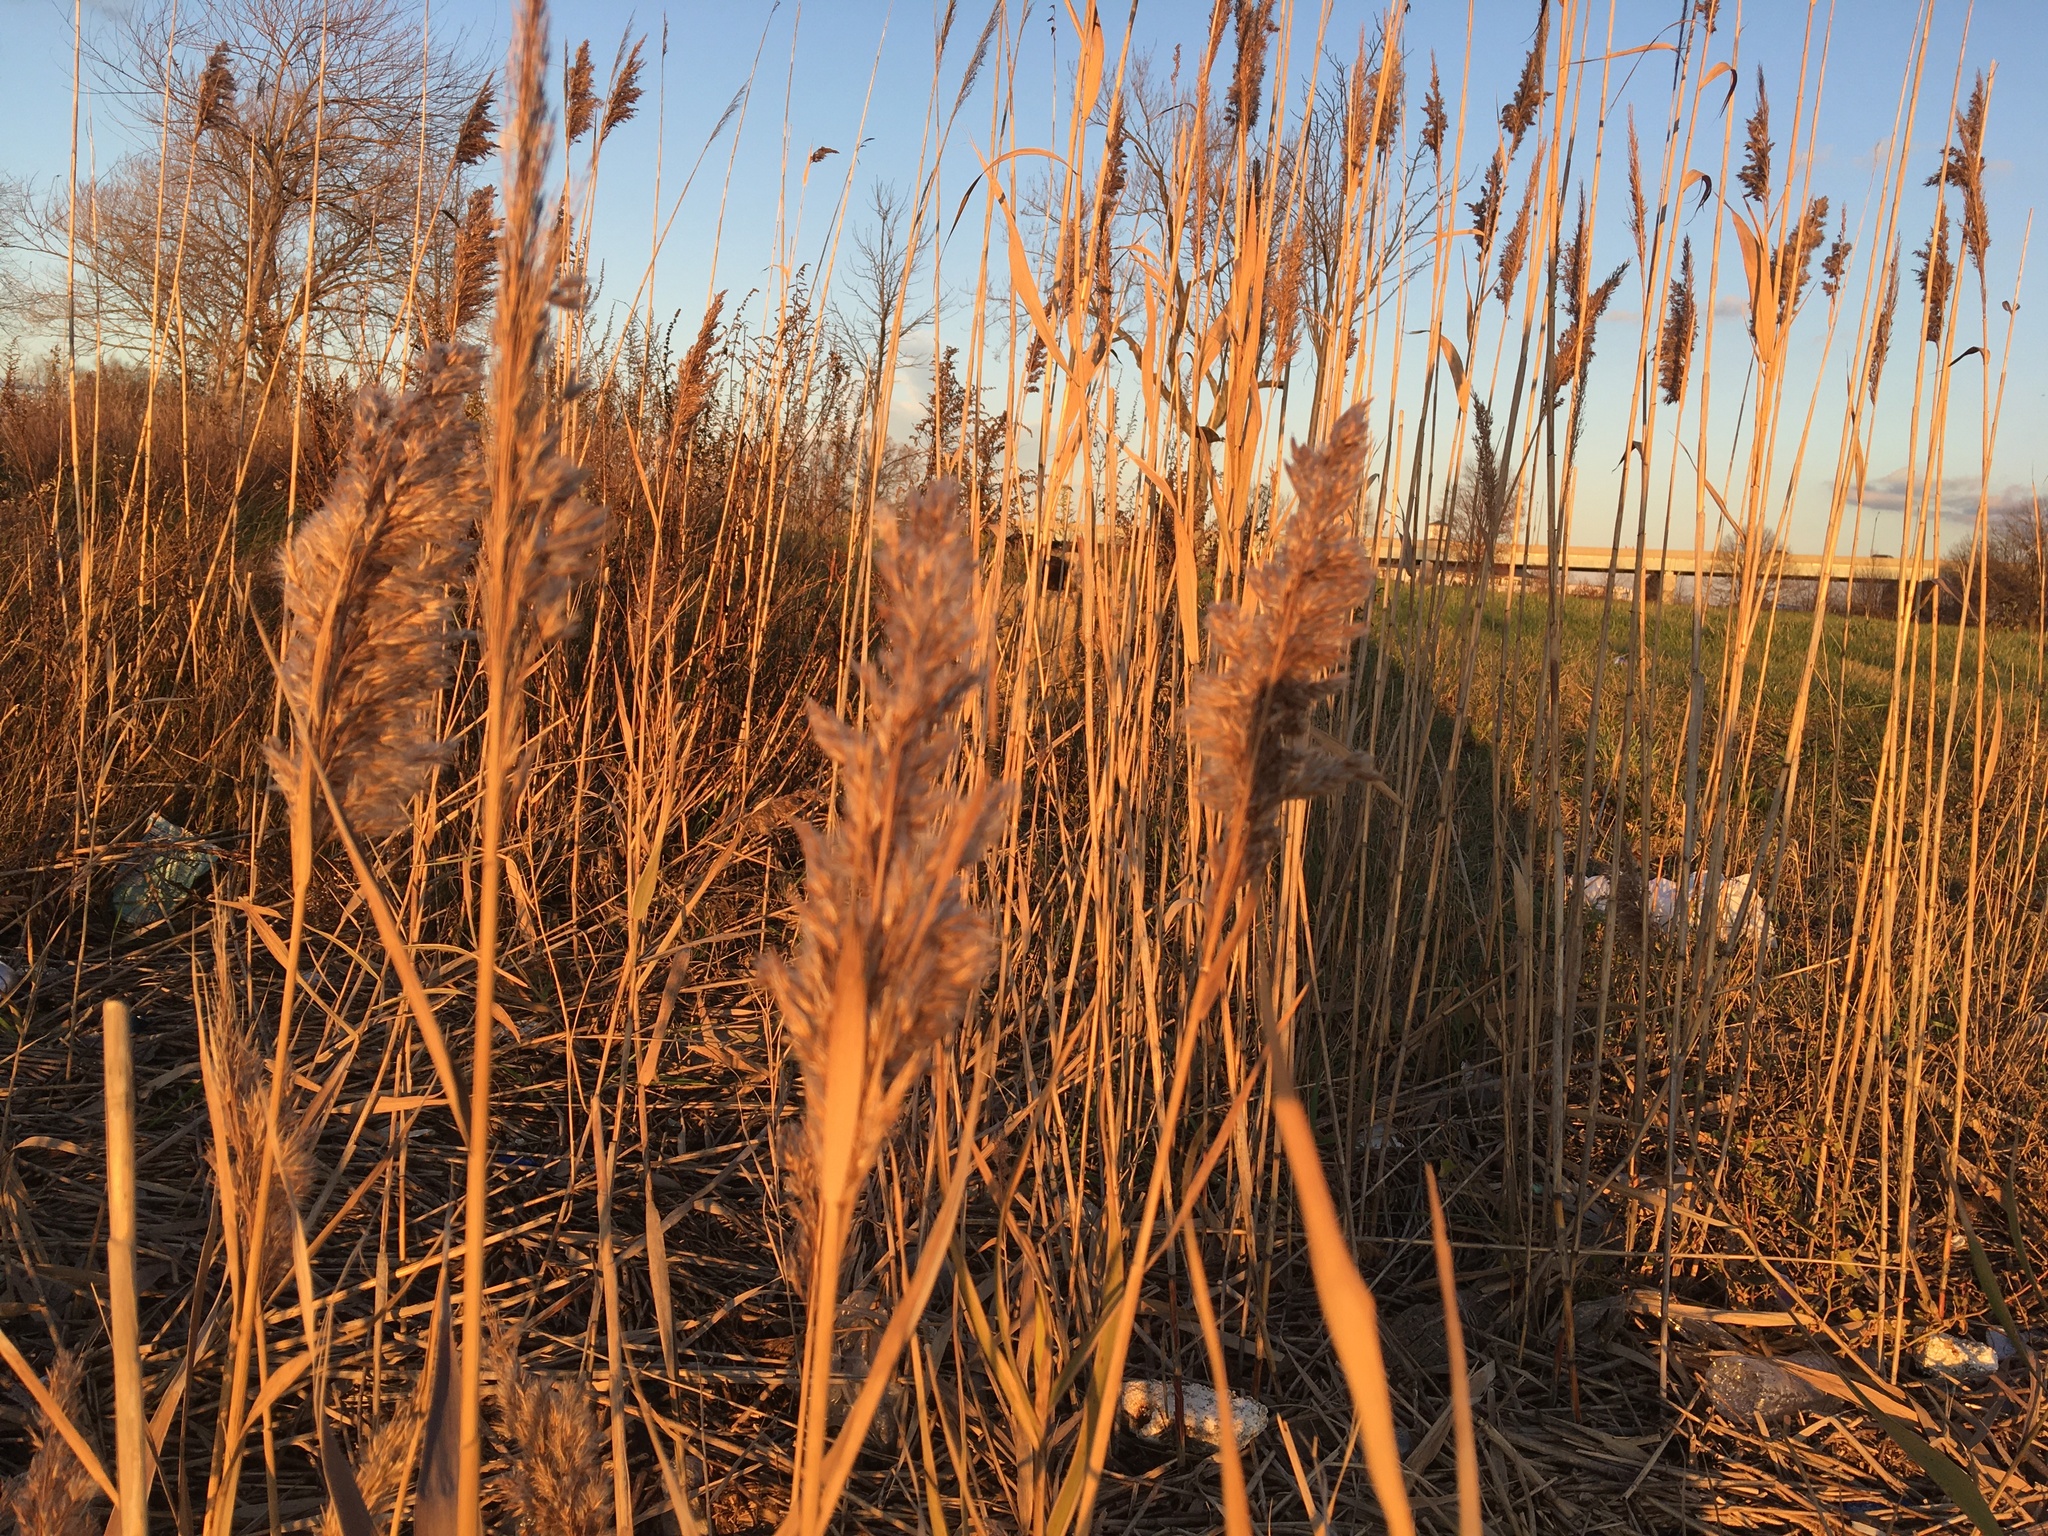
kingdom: Plantae
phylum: Tracheophyta
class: Liliopsida
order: Poales
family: Poaceae
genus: Phragmites
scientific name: Phragmites australis
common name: Common reed
